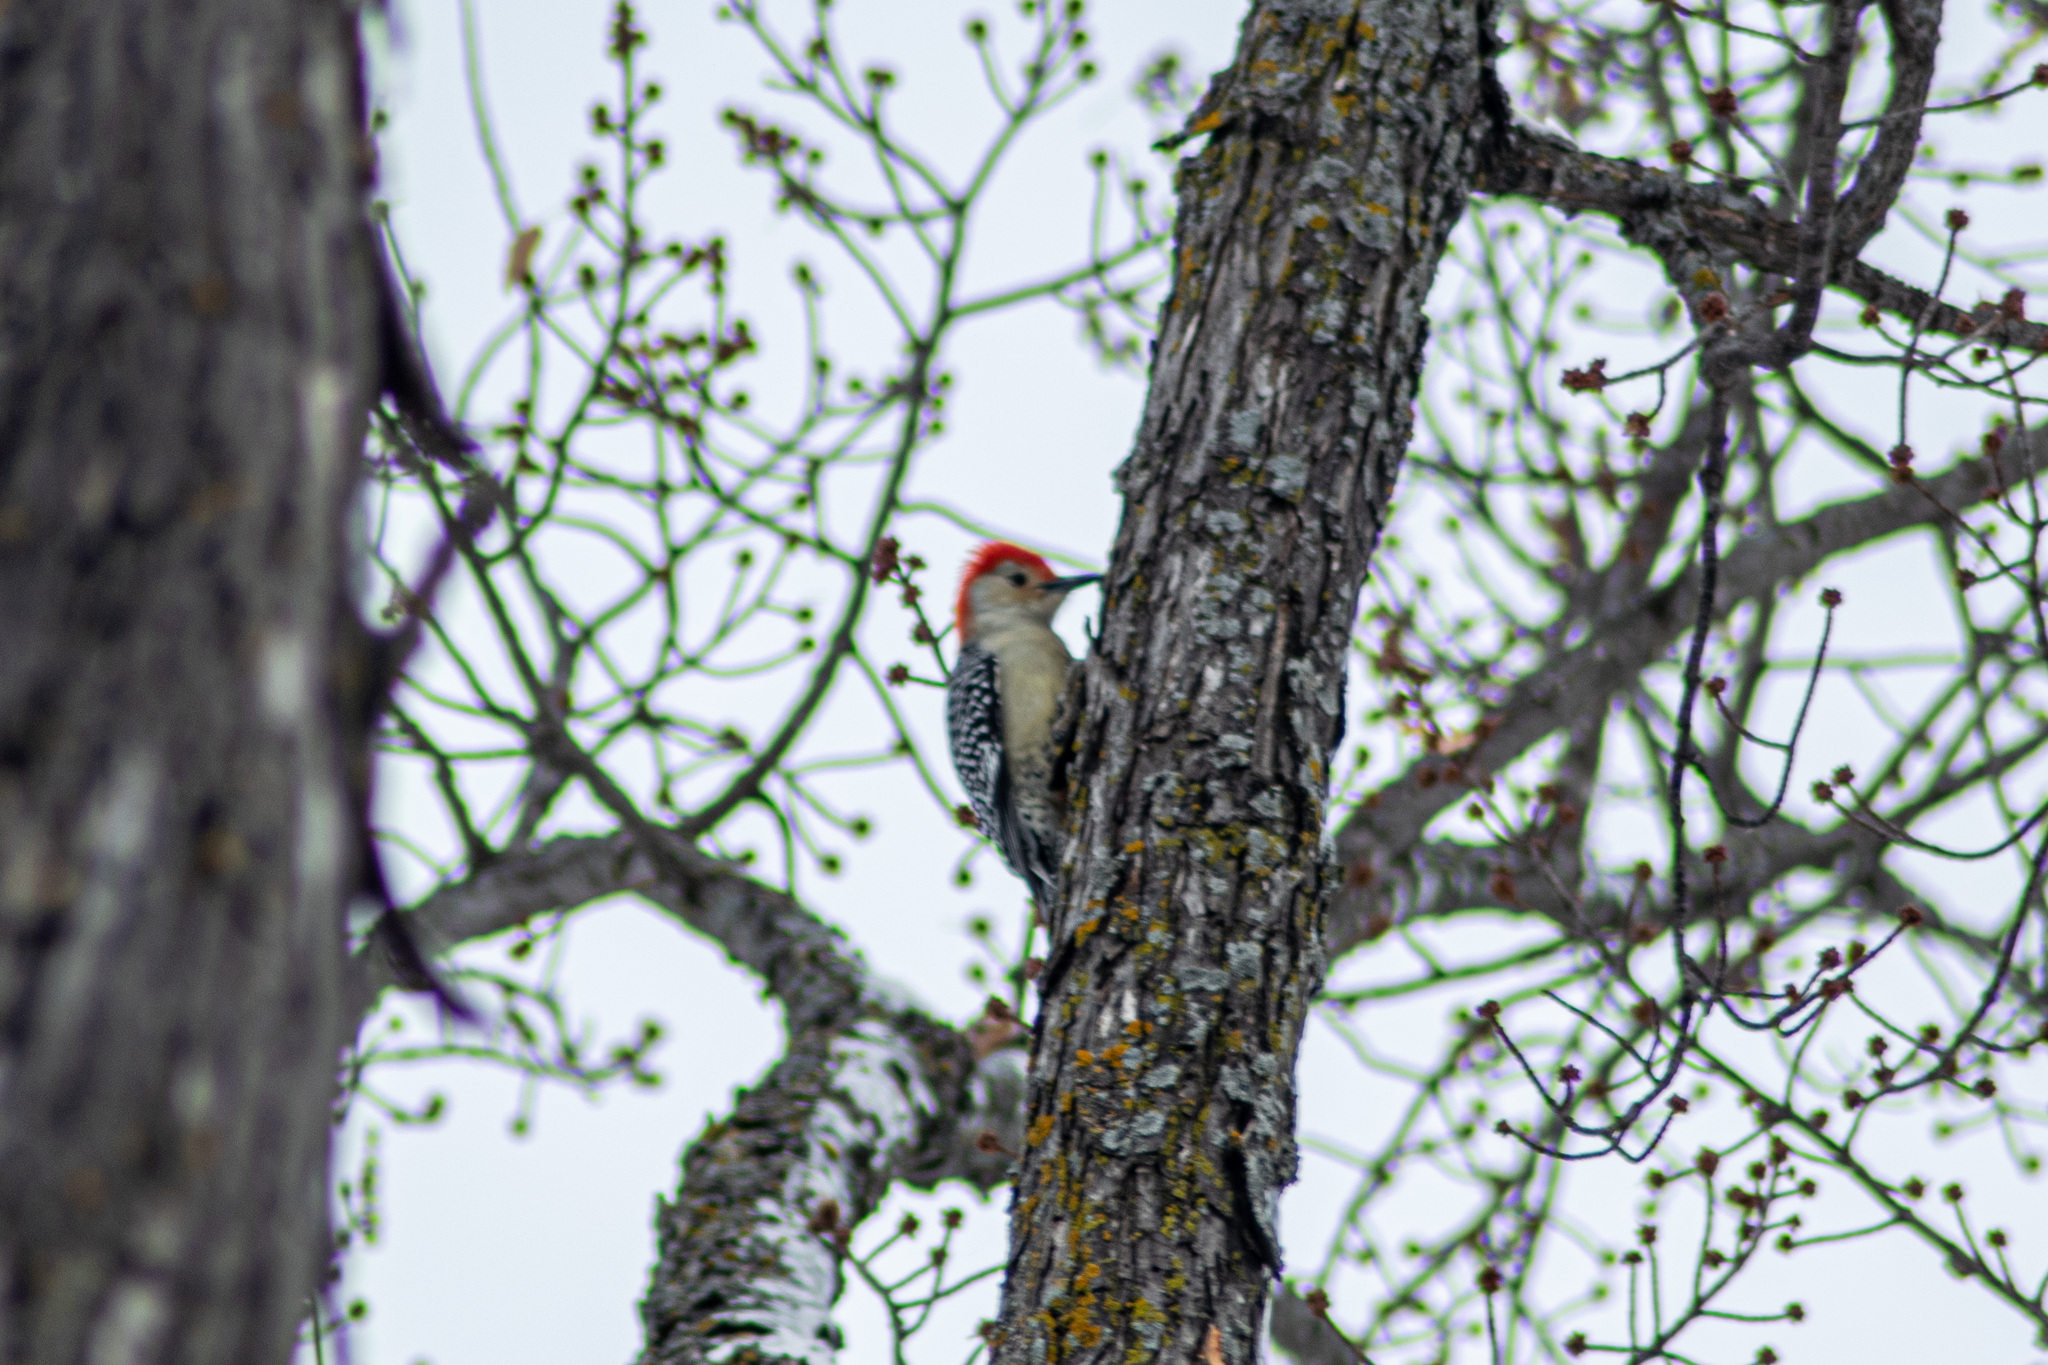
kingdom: Animalia
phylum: Chordata
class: Aves
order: Piciformes
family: Picidae
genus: Melanerpes
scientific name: Melanerpes carolinus
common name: Red-bellied woodpecker
